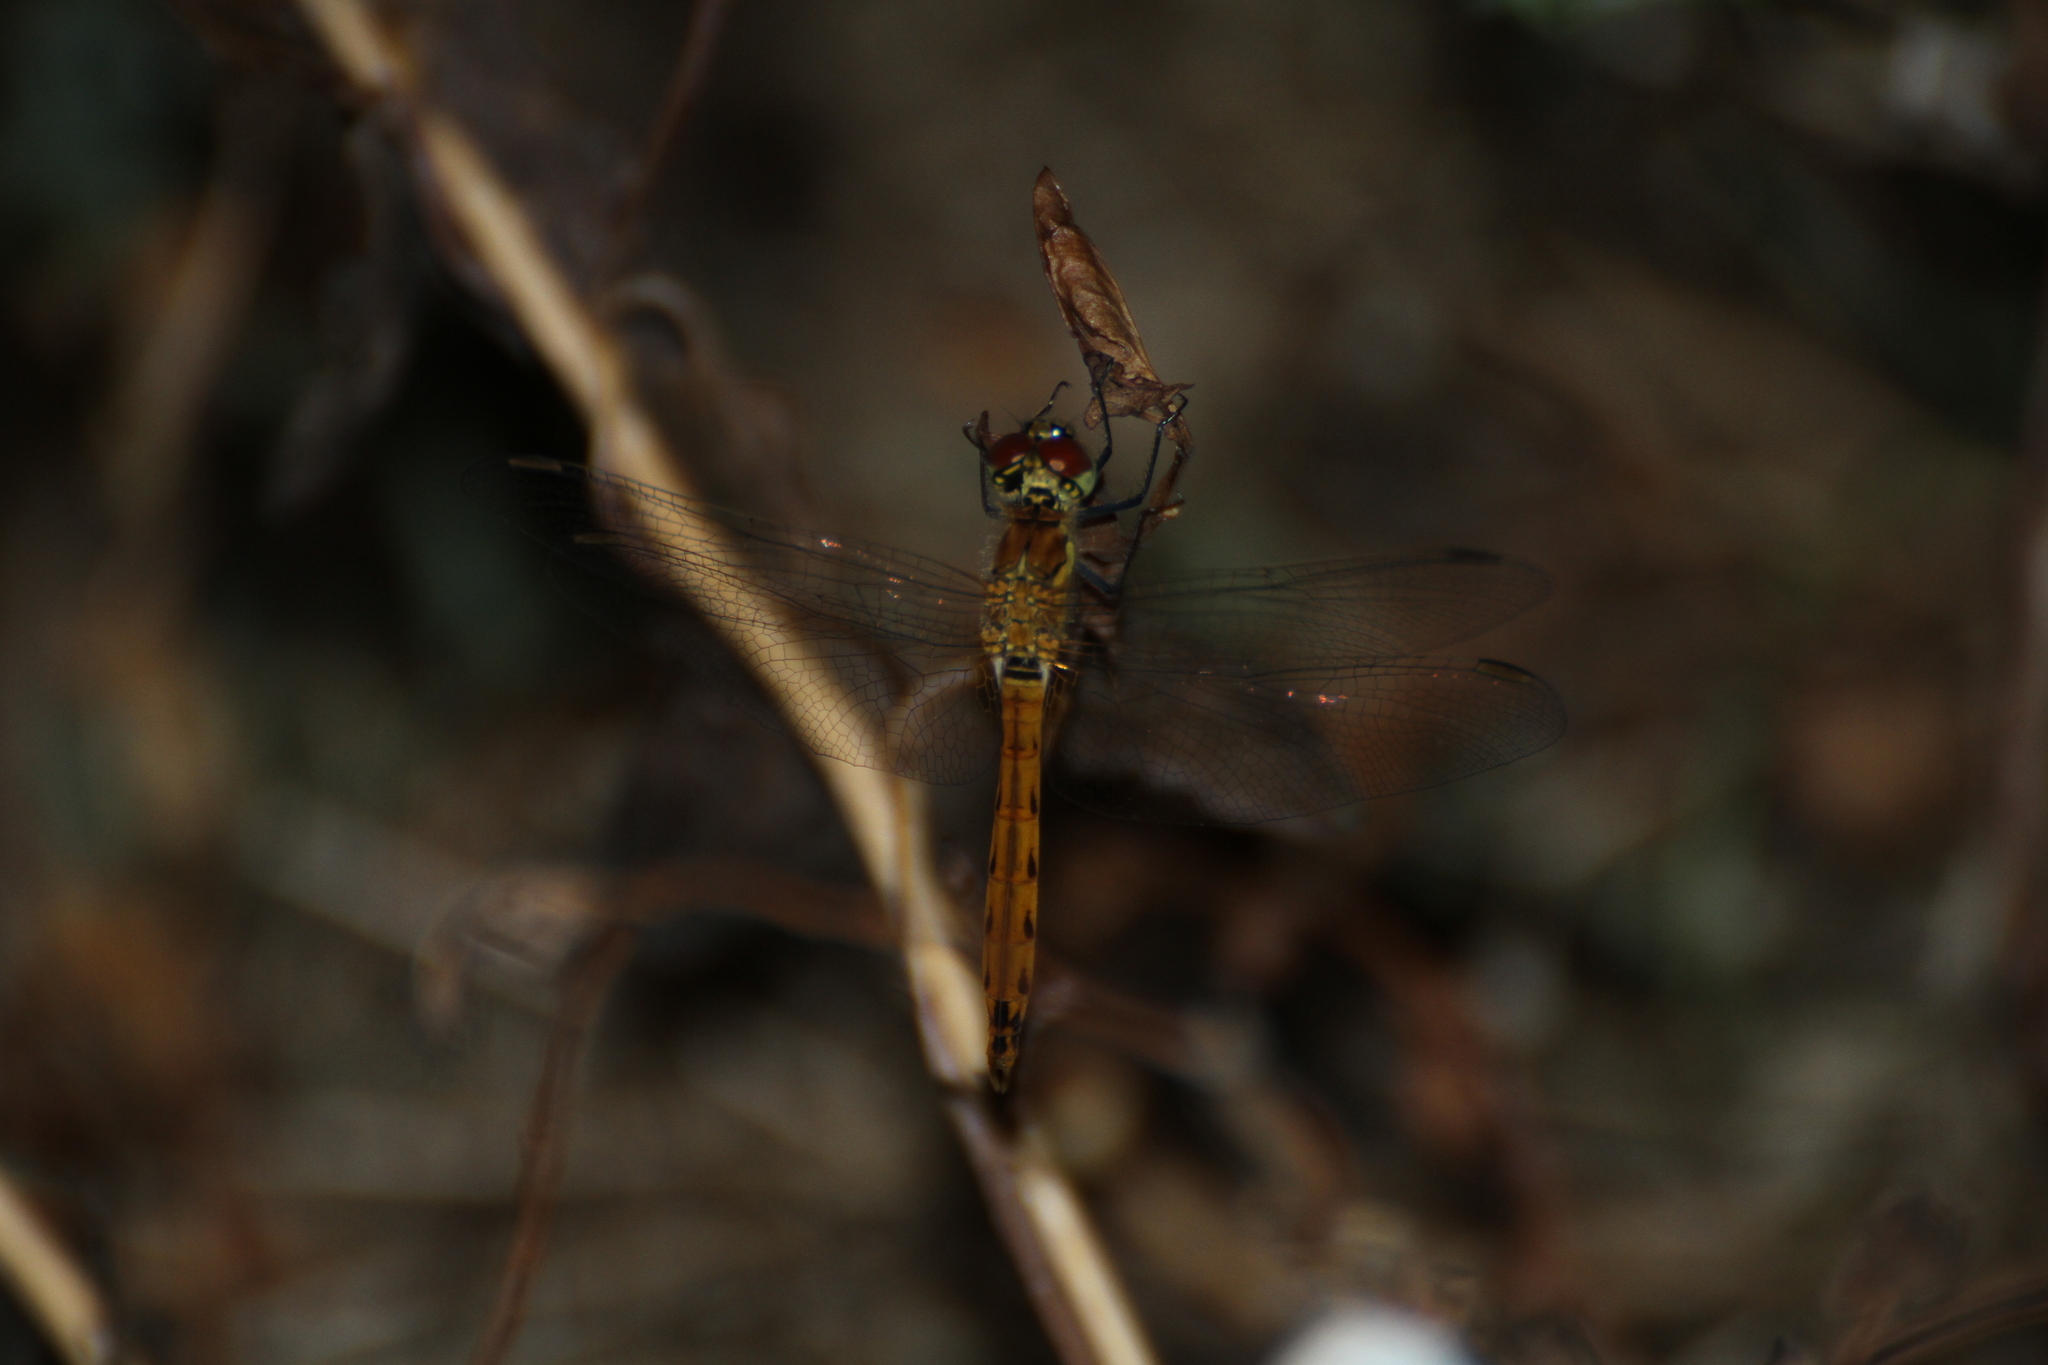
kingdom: Animalia
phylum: Arthropoda
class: Insecta
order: Odonata
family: Libellulidae
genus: Sympetrum
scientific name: Sympetrum depressiusculum
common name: Spotted darter
